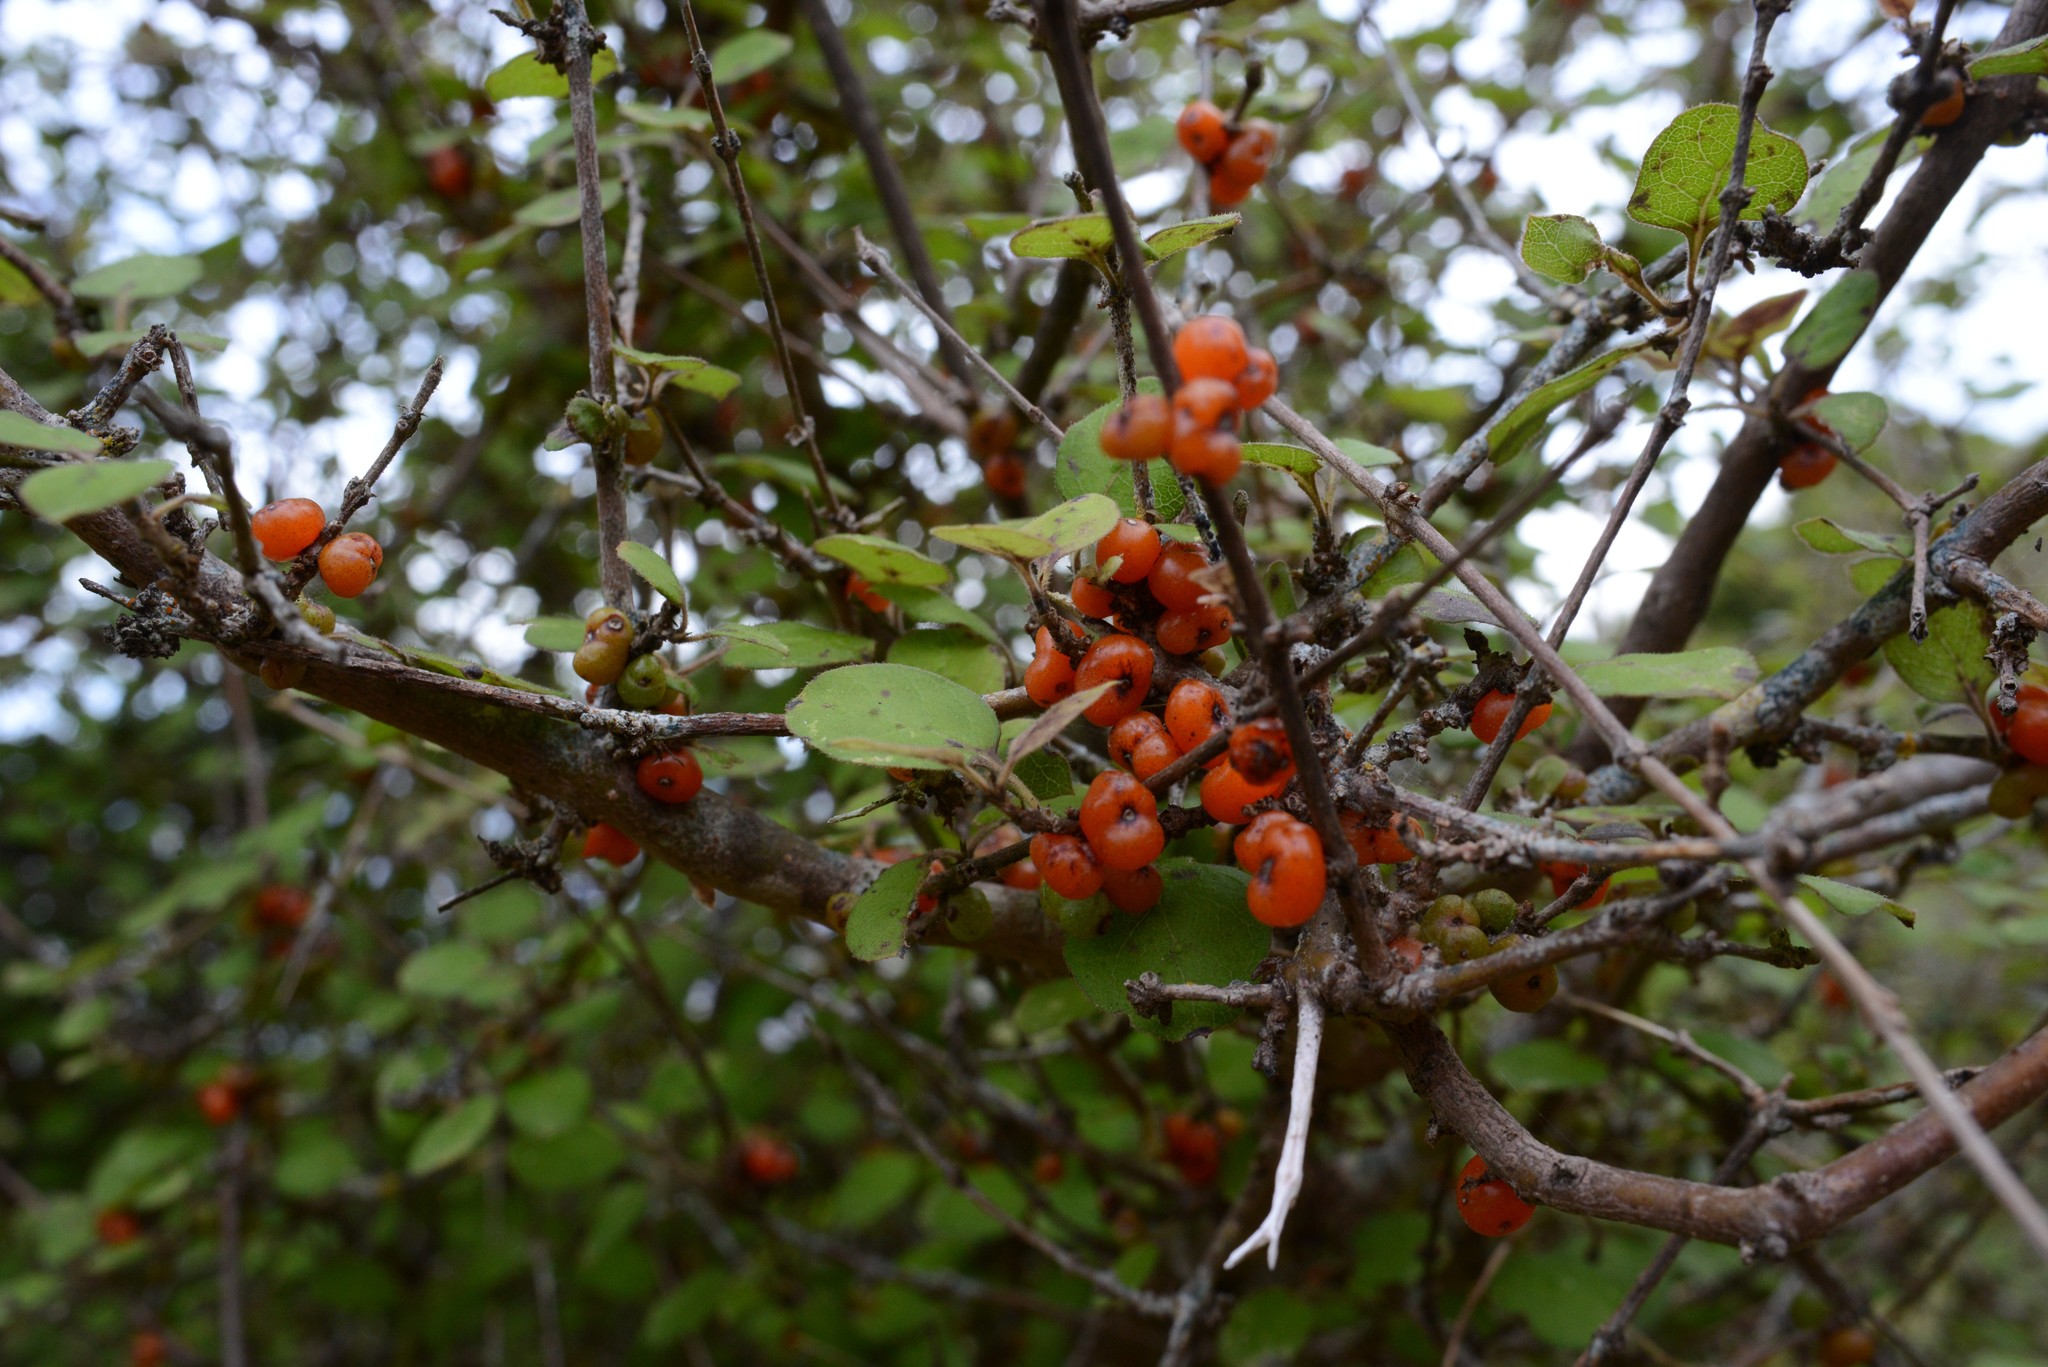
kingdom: Plantae
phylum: Tracheophyta
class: Magnoliopsida
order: Gentianales
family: Rubiaceae
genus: Coprosma
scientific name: Coprosma rotundifolia
